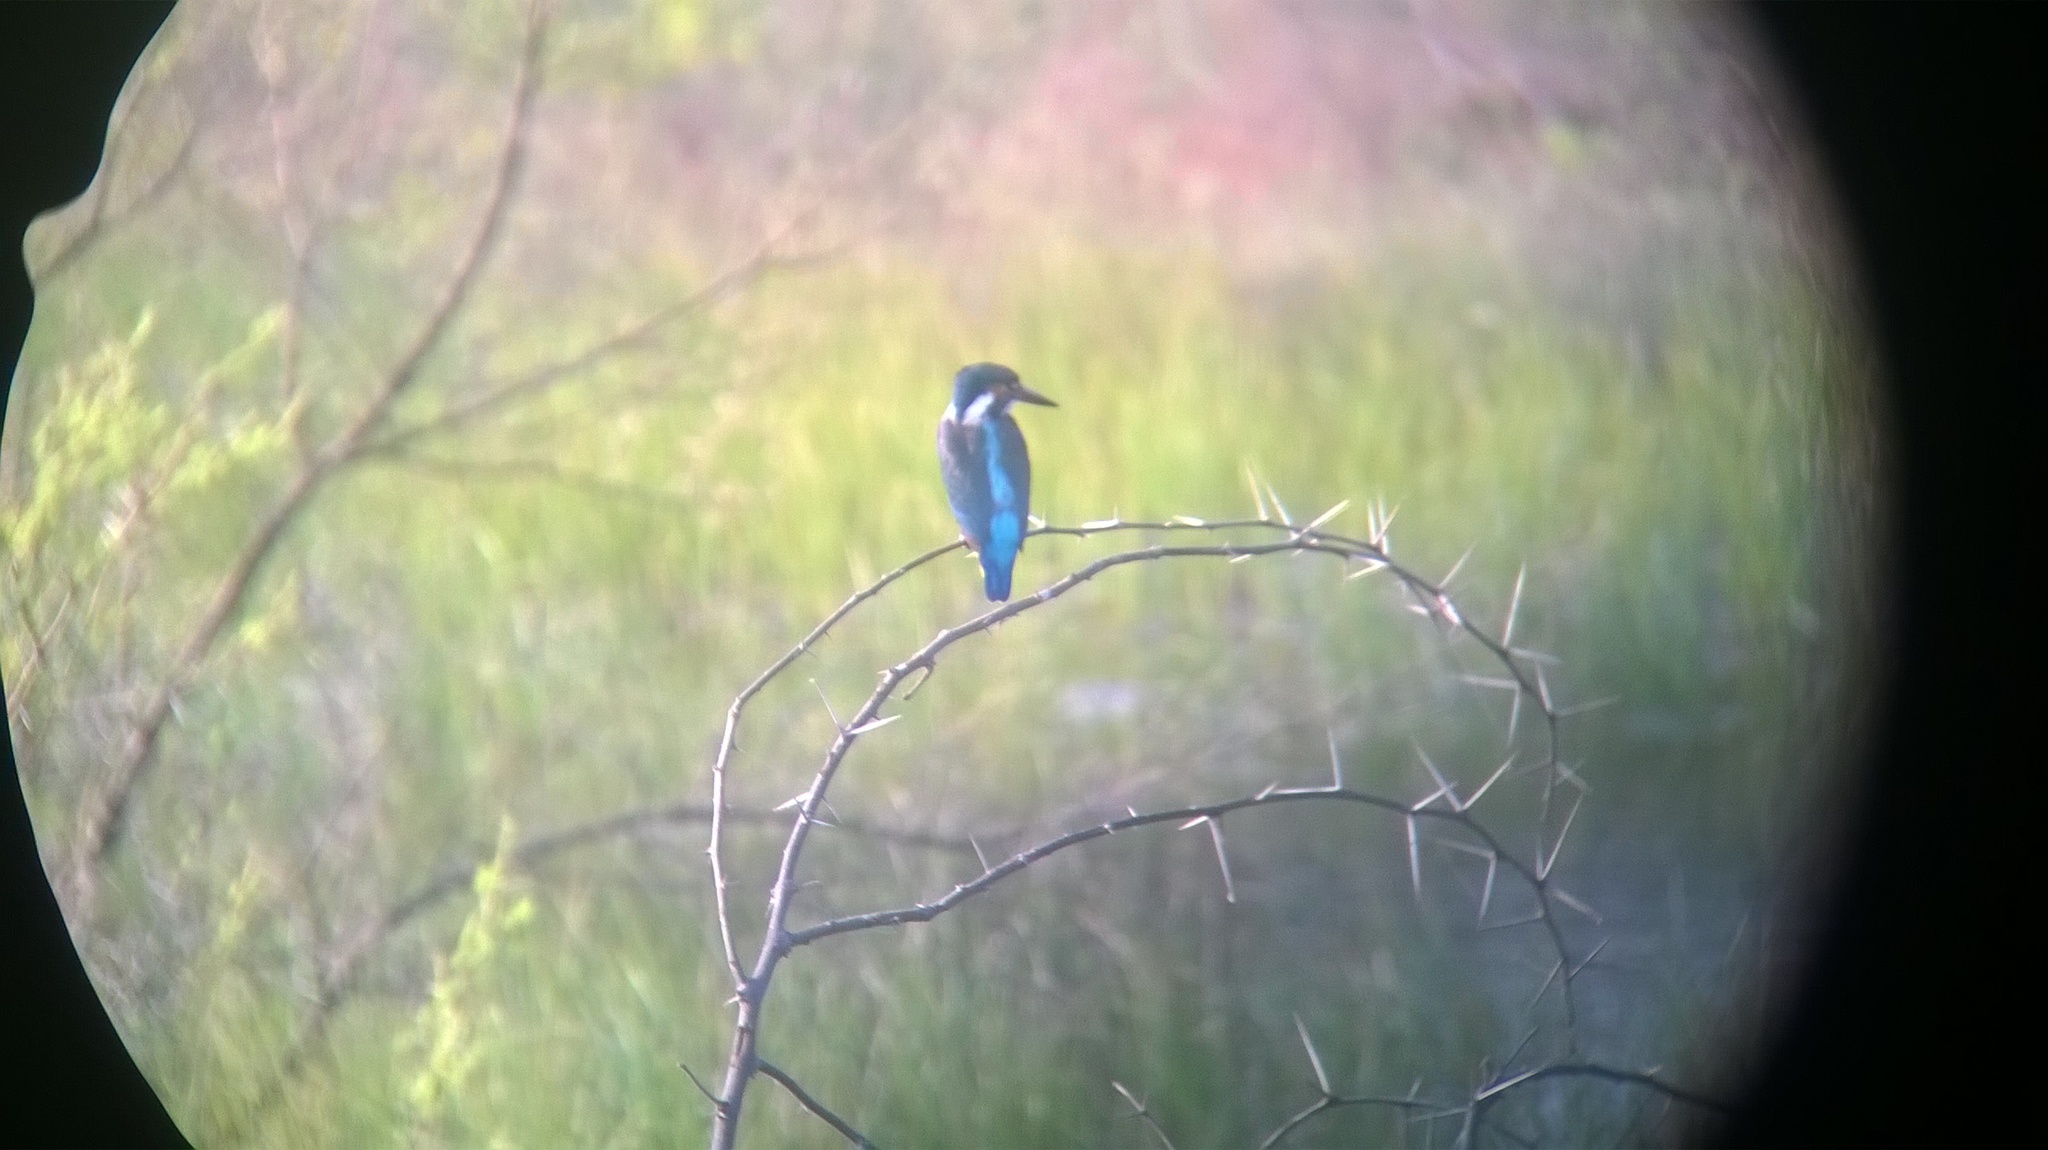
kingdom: Animalia
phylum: Chordata
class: Aves
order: Coraciiformes
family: Alcedinidae
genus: Alcedo
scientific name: Alcedo atthis
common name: Common kingfisher
